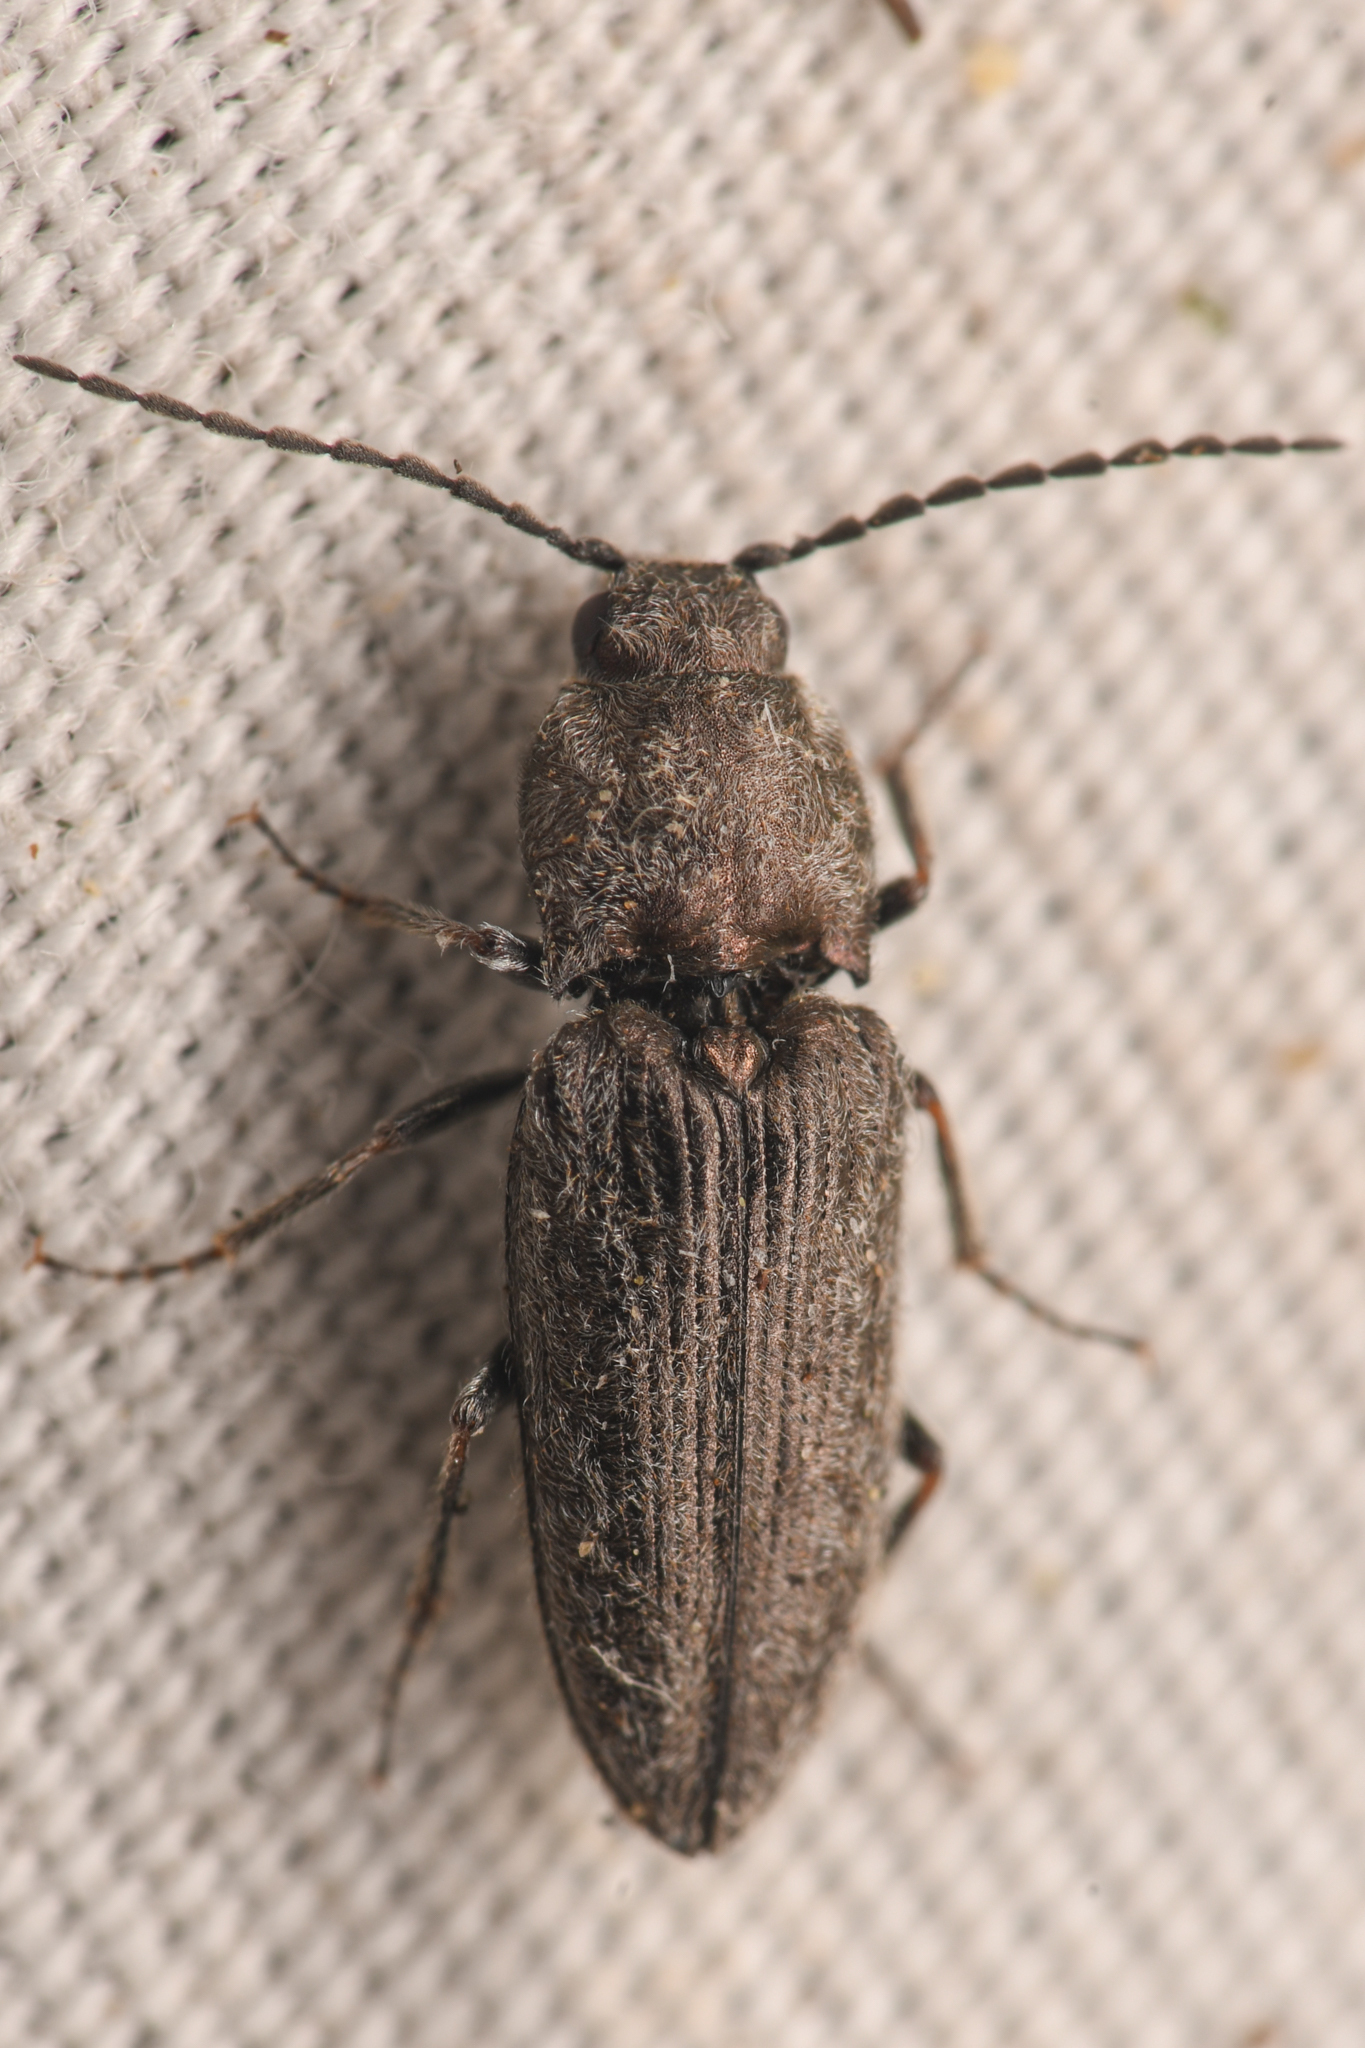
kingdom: Animalia
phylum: Arthropoda
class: Insecta
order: Coleoptera
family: Elateridae
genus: Cardiophorus
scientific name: Cardiophorus
